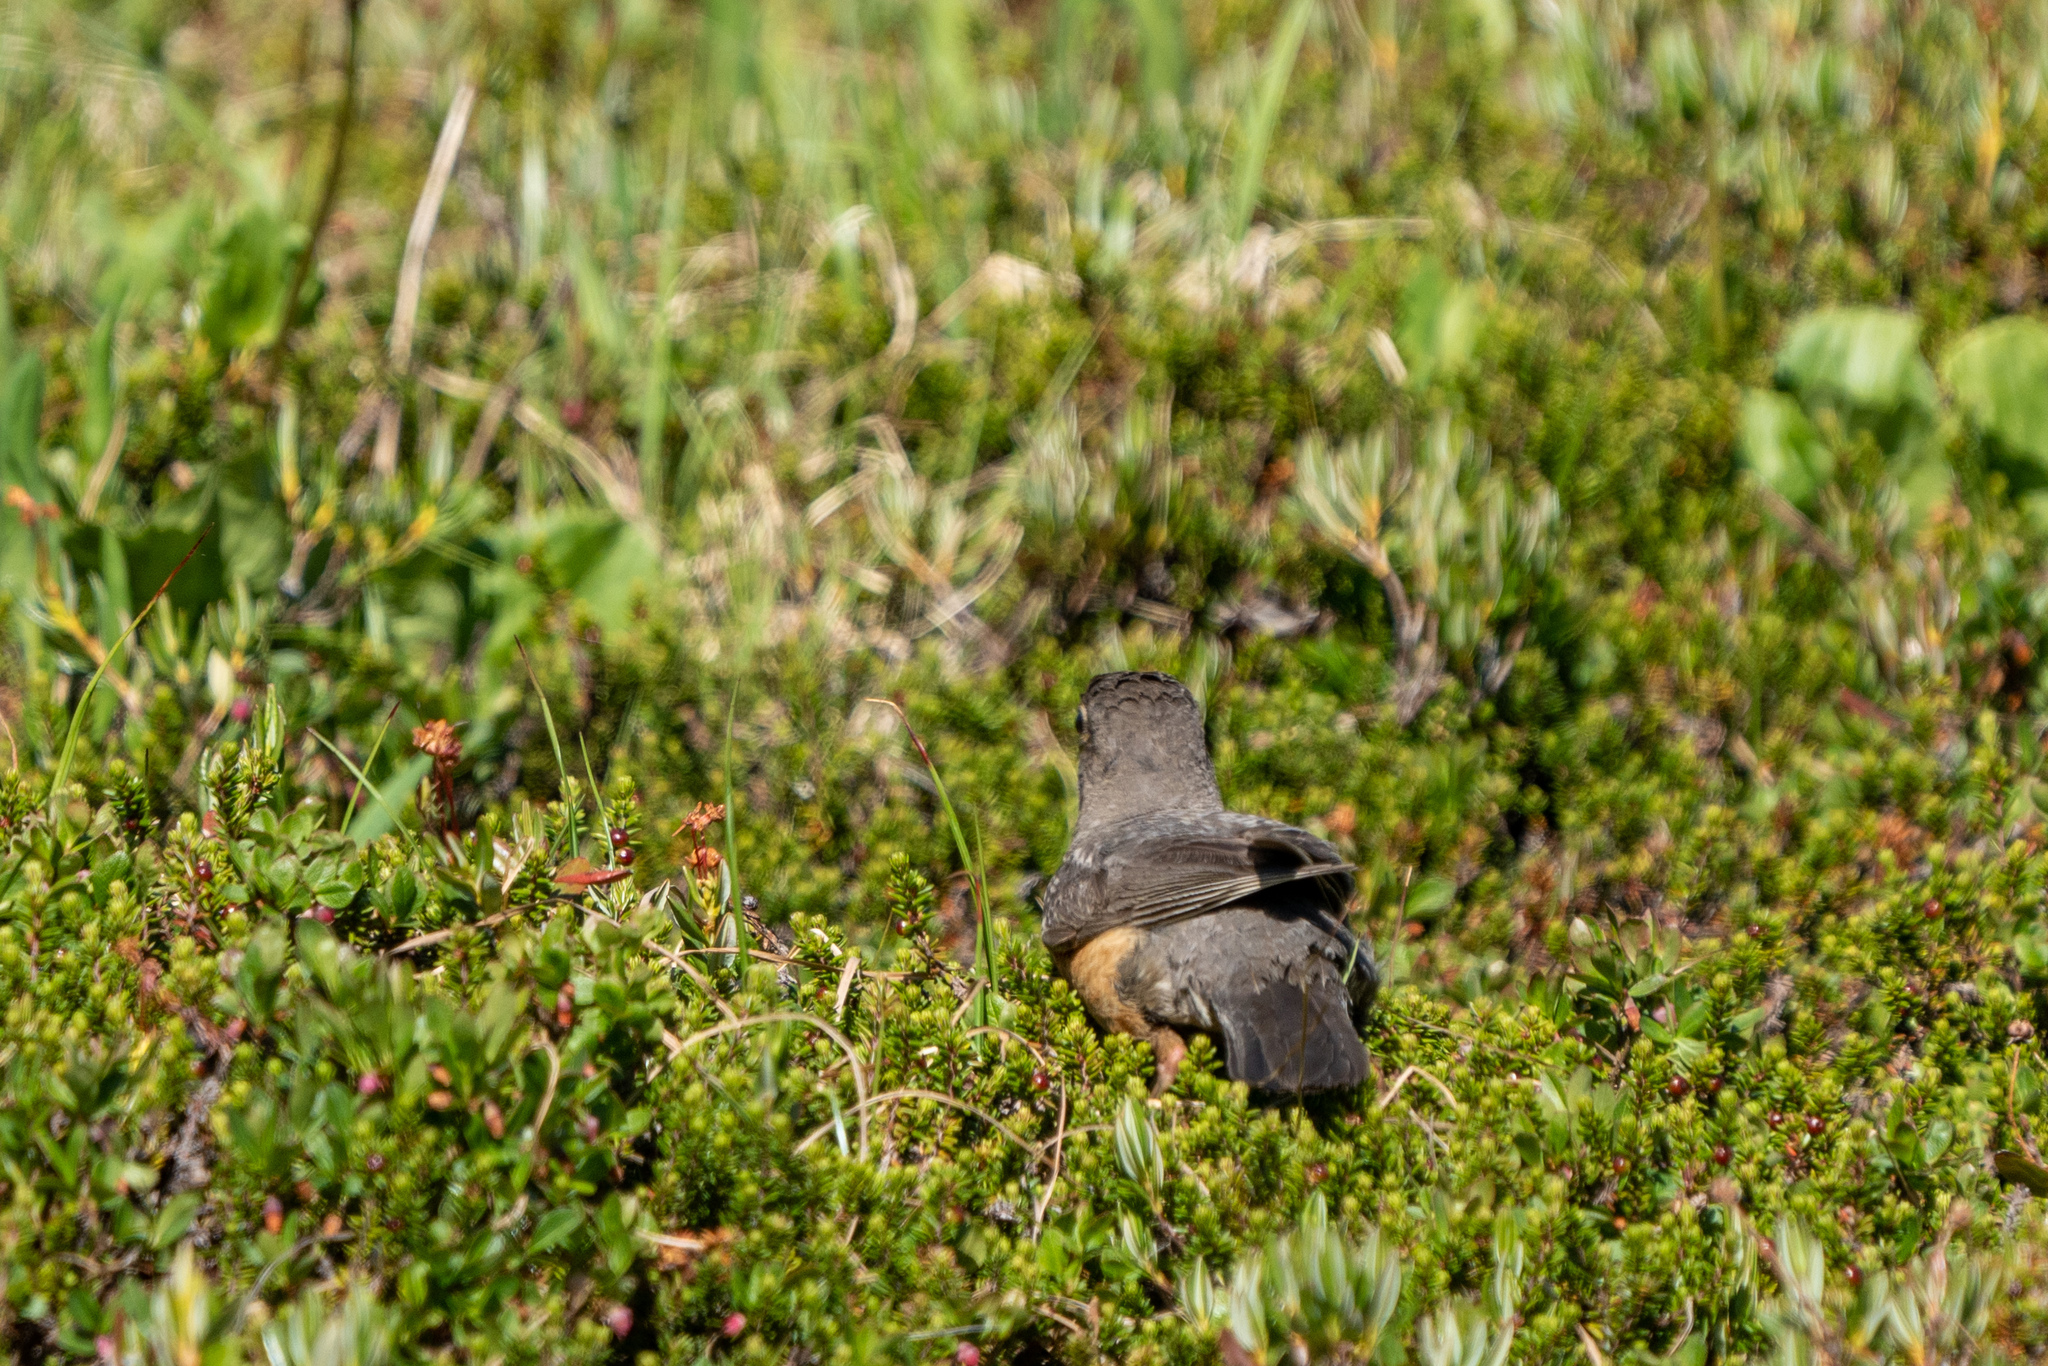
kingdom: Animalia
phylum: Chordata
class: Aves
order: Passeriformes
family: Turdidae
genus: Turdus
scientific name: Turdus migratorius
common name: American robin
